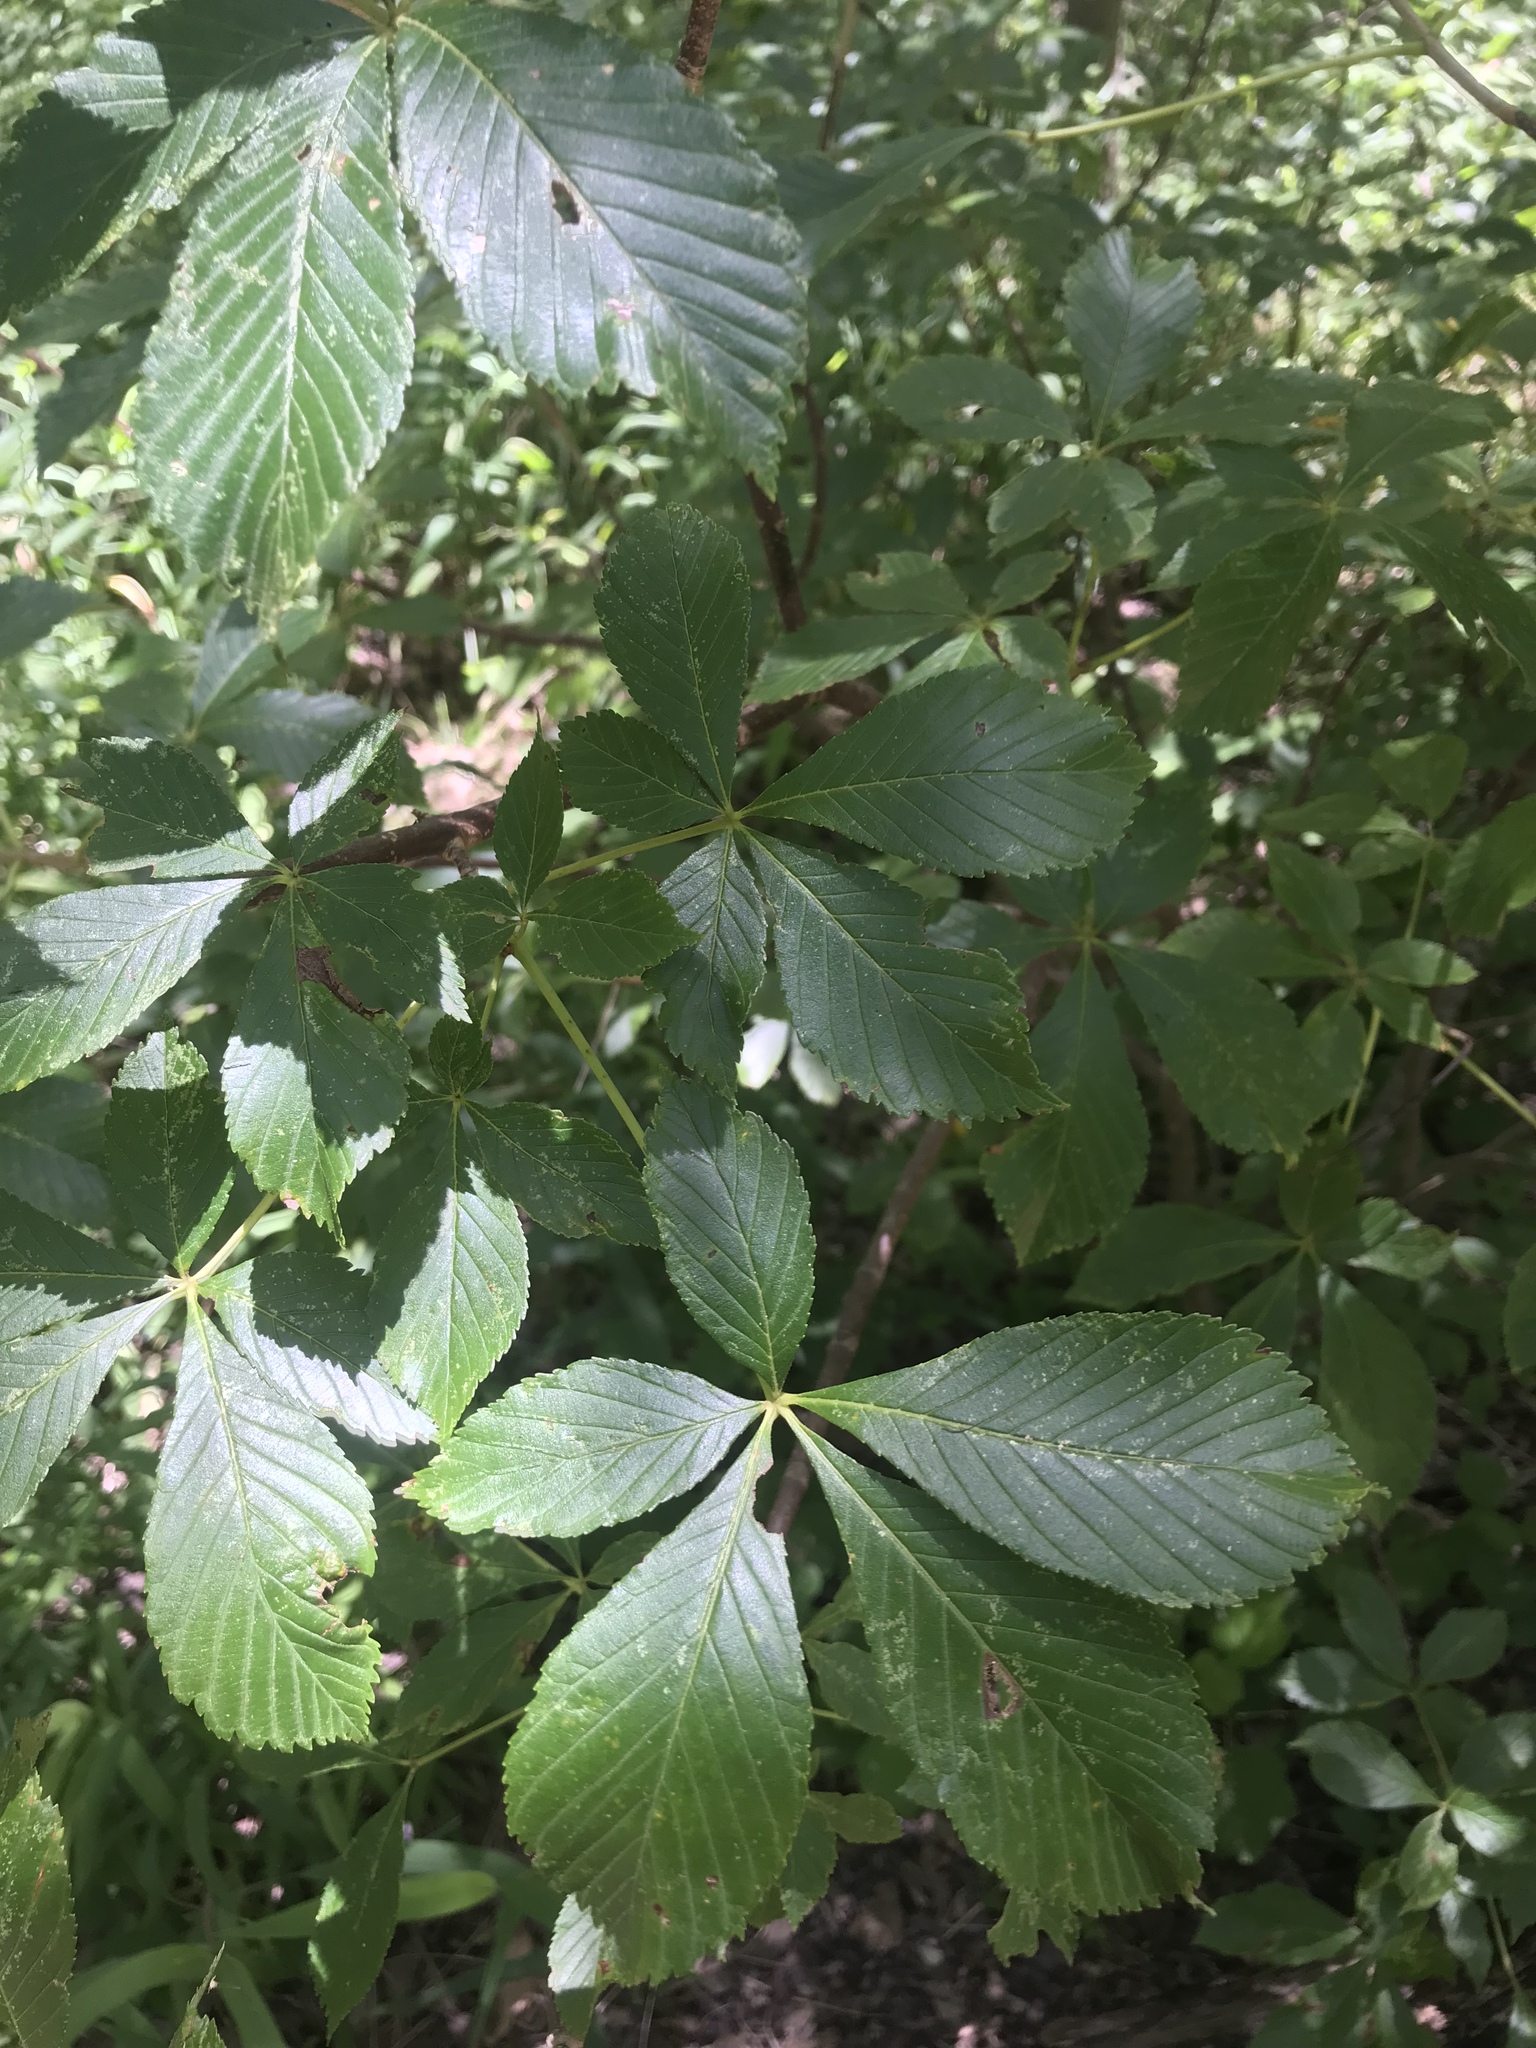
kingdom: Plantae
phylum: Tracheophyta
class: Magnoliopsida
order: Sapindales
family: Sapindaceae
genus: Aesculus
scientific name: Aesculus pavia
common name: Red buckeye
